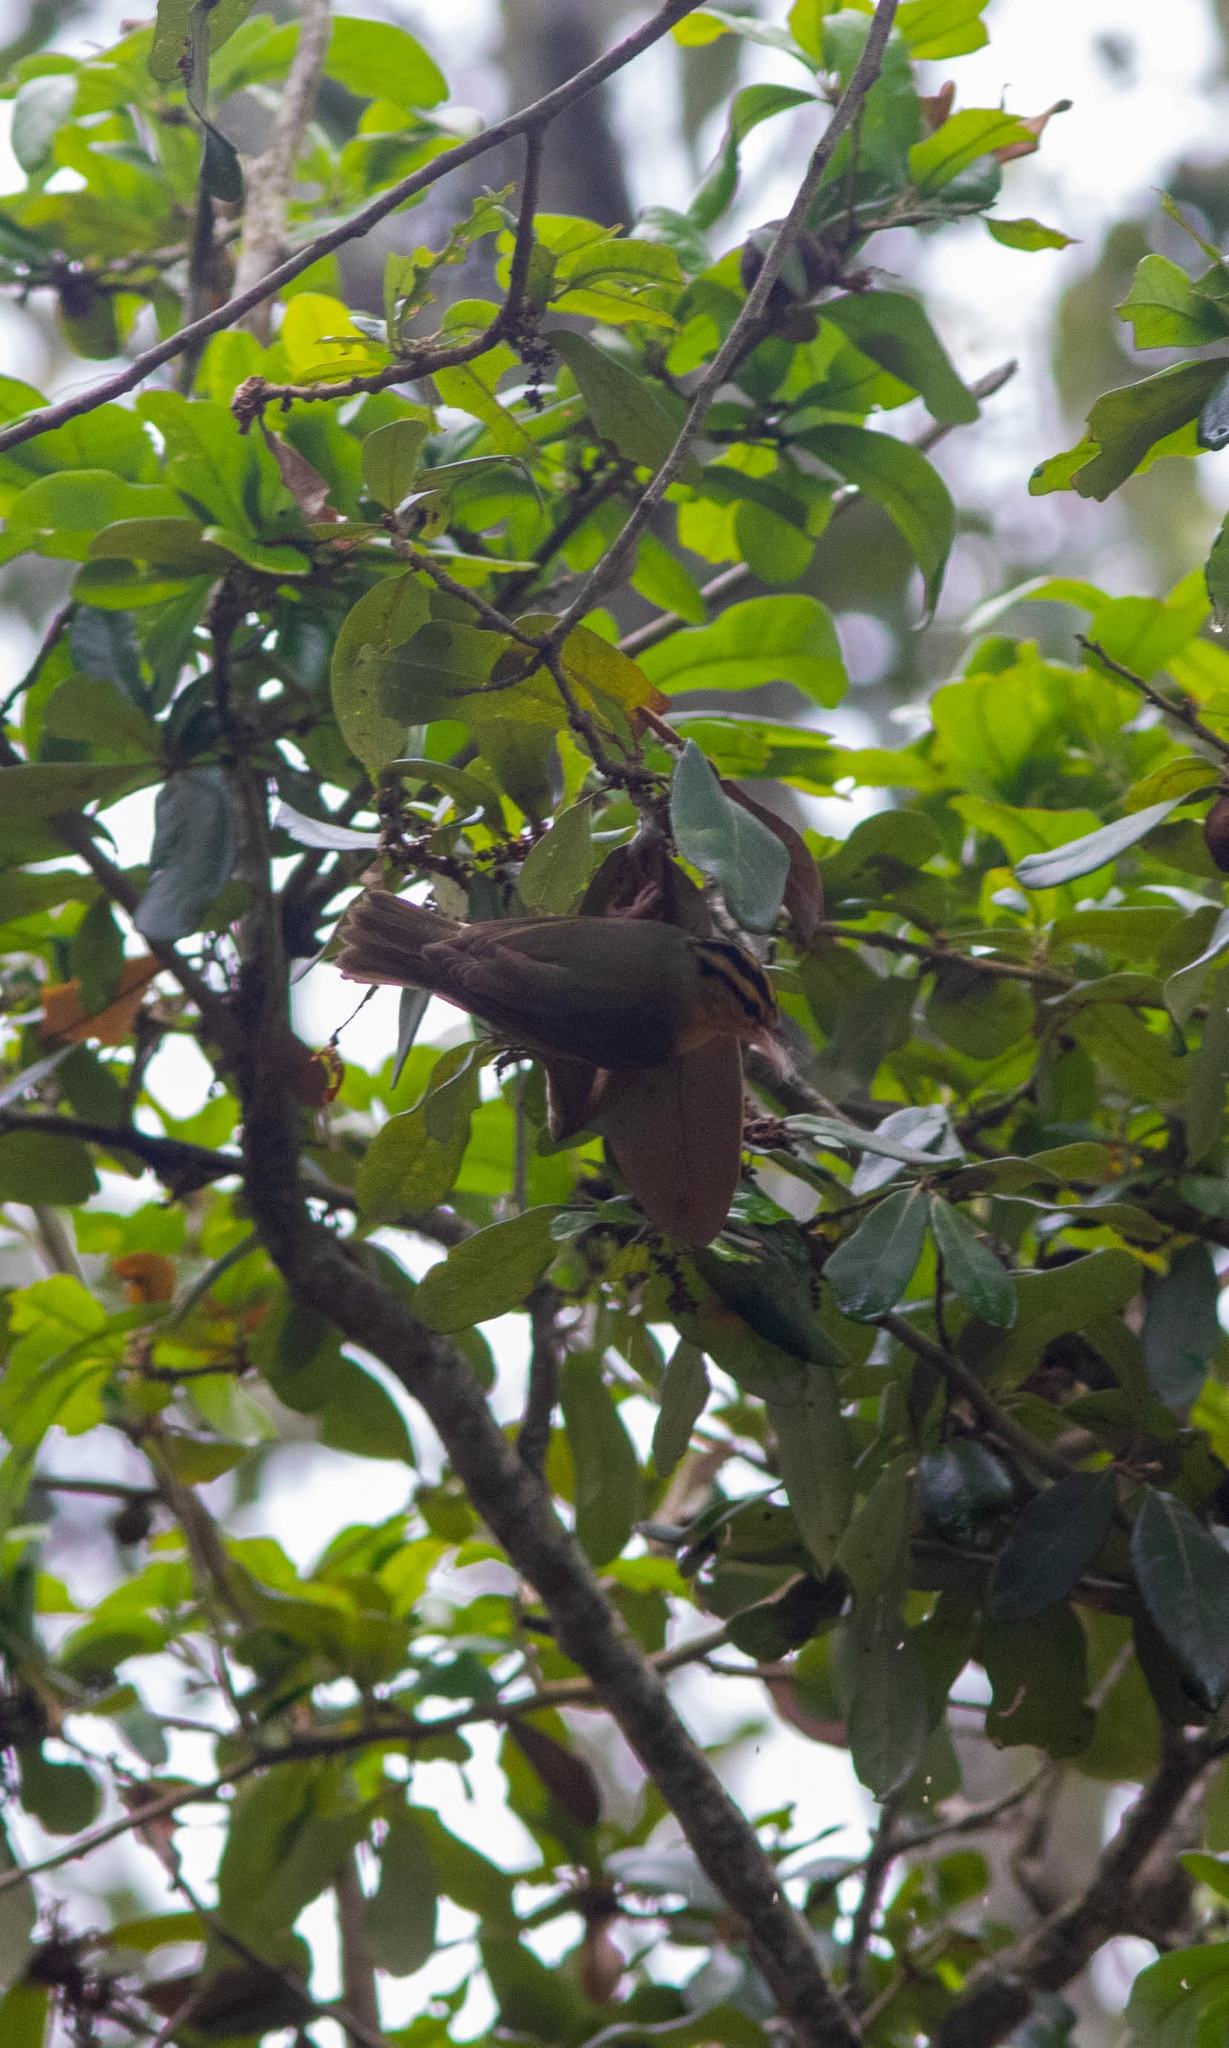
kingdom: Animalia
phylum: Chordata
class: Aves
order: Passeriformes
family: Parulidae
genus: Helmitheros
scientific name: Helmitheros vermivorum
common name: Worm-eating warbler
